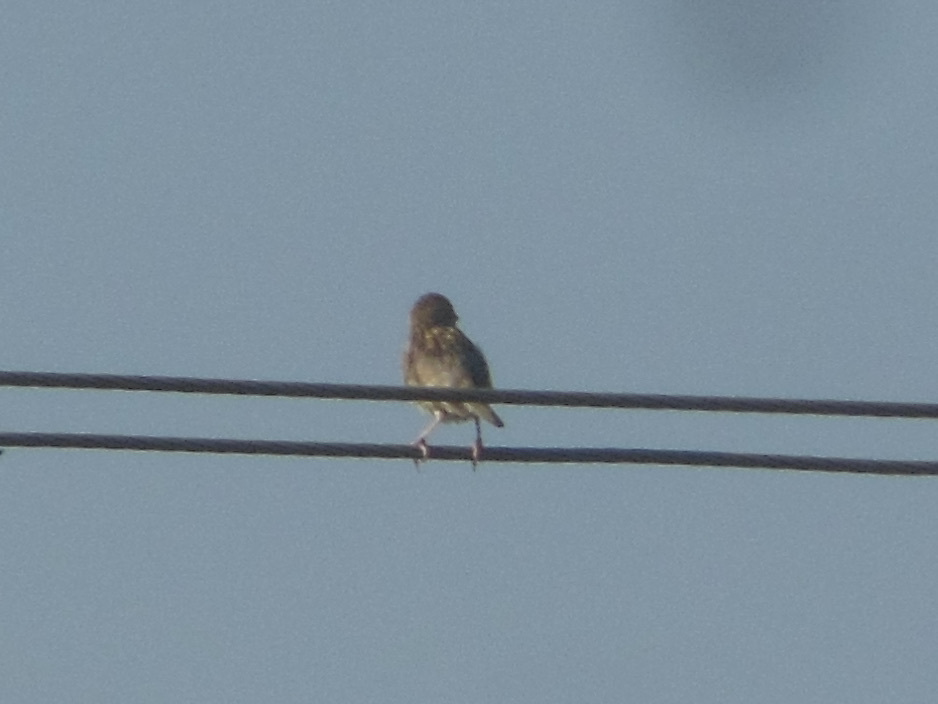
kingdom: Animalia
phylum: Chordata
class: Aves
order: Passeriformes
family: Ploceidae
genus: Ploceus
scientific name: Ploceus philippinus
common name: Baya weaver
